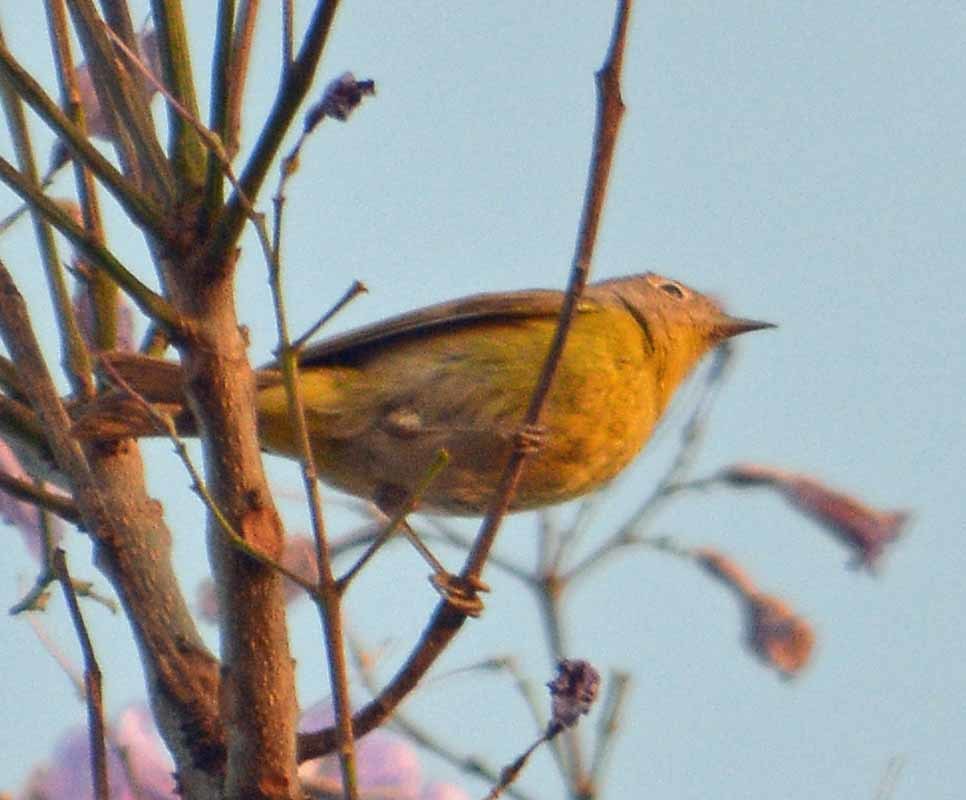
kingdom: Animalia
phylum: Chordata
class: Aves
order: Passeriformes
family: Parulidae
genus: Leiothlypis
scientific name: Leiothlypis ruficapilla
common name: Nashville warbler
